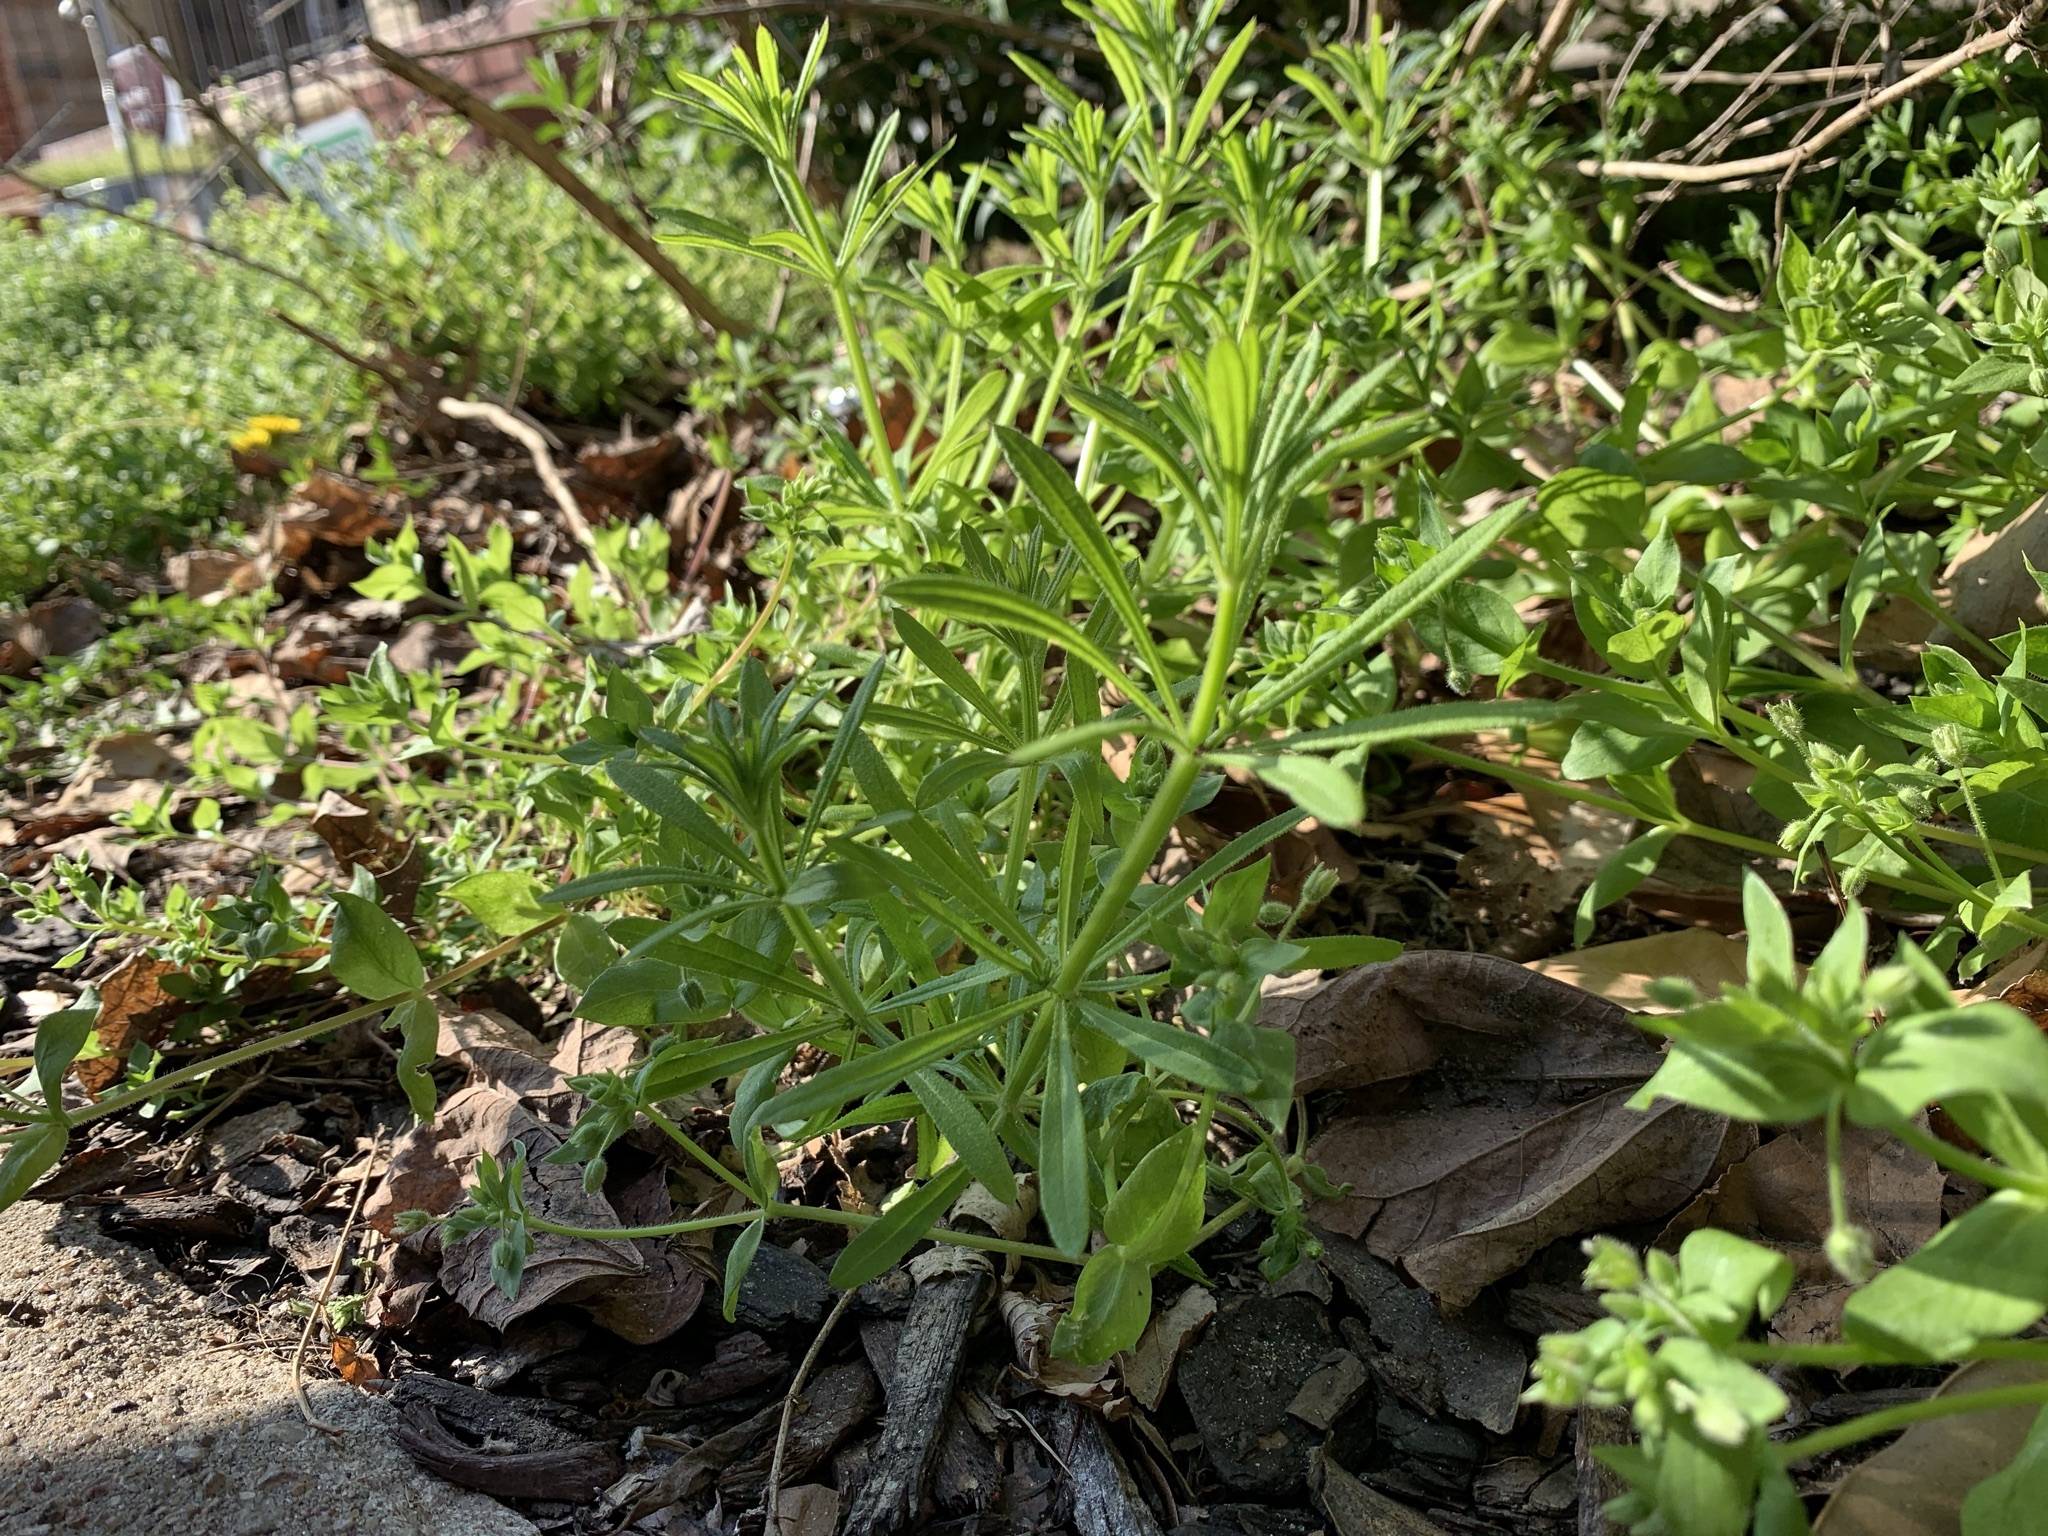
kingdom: Plantae
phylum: Tracheophyta
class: Magnoliopsida
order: Gentianales
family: Rubiaceae
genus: Galium
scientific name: Galium aparine
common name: Cleavers
